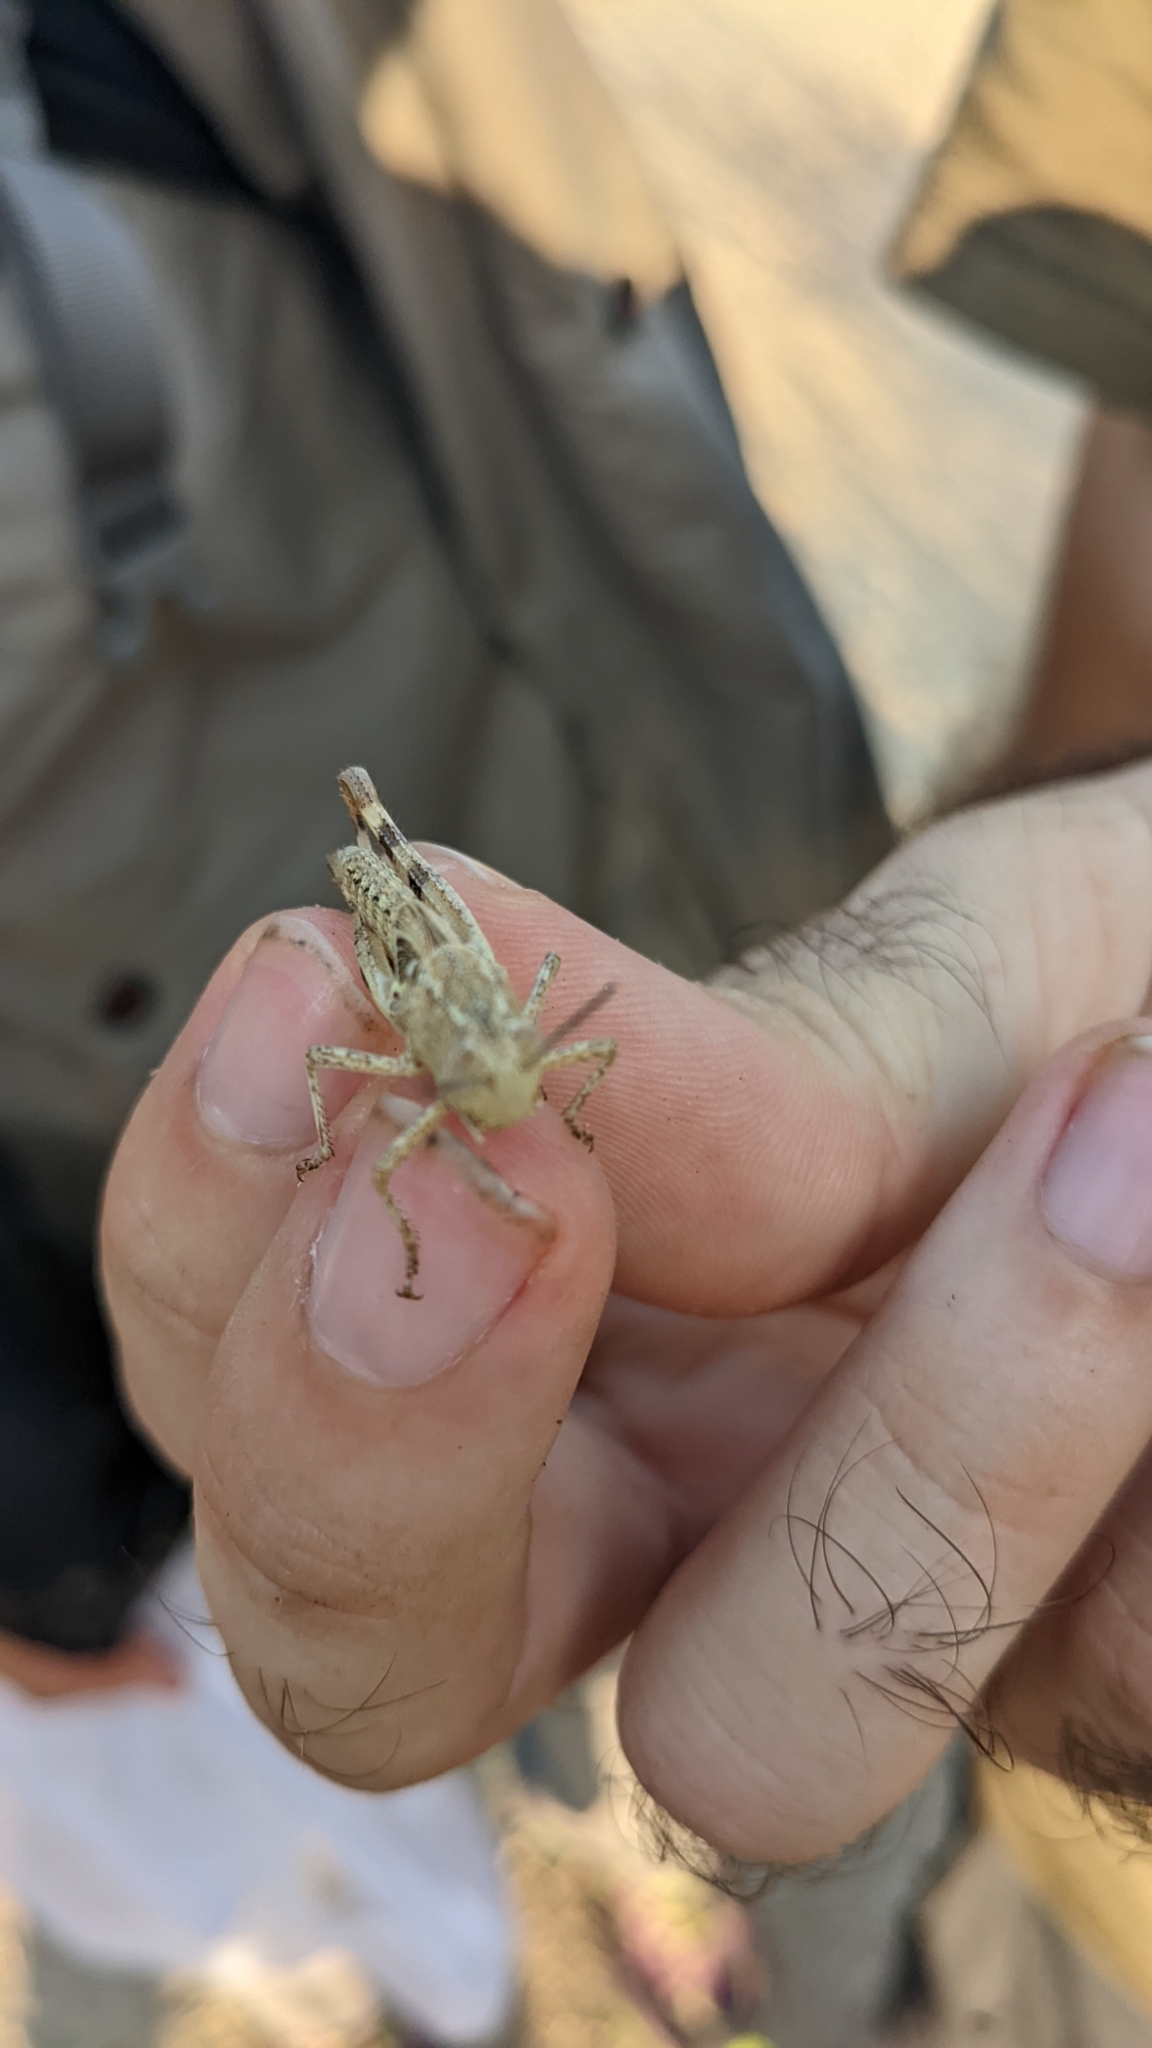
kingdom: Animalia
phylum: Arthropoda
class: Insecta
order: Orthoptera
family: Acrididae
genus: Heteracris
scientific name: Heteracris littoralis
